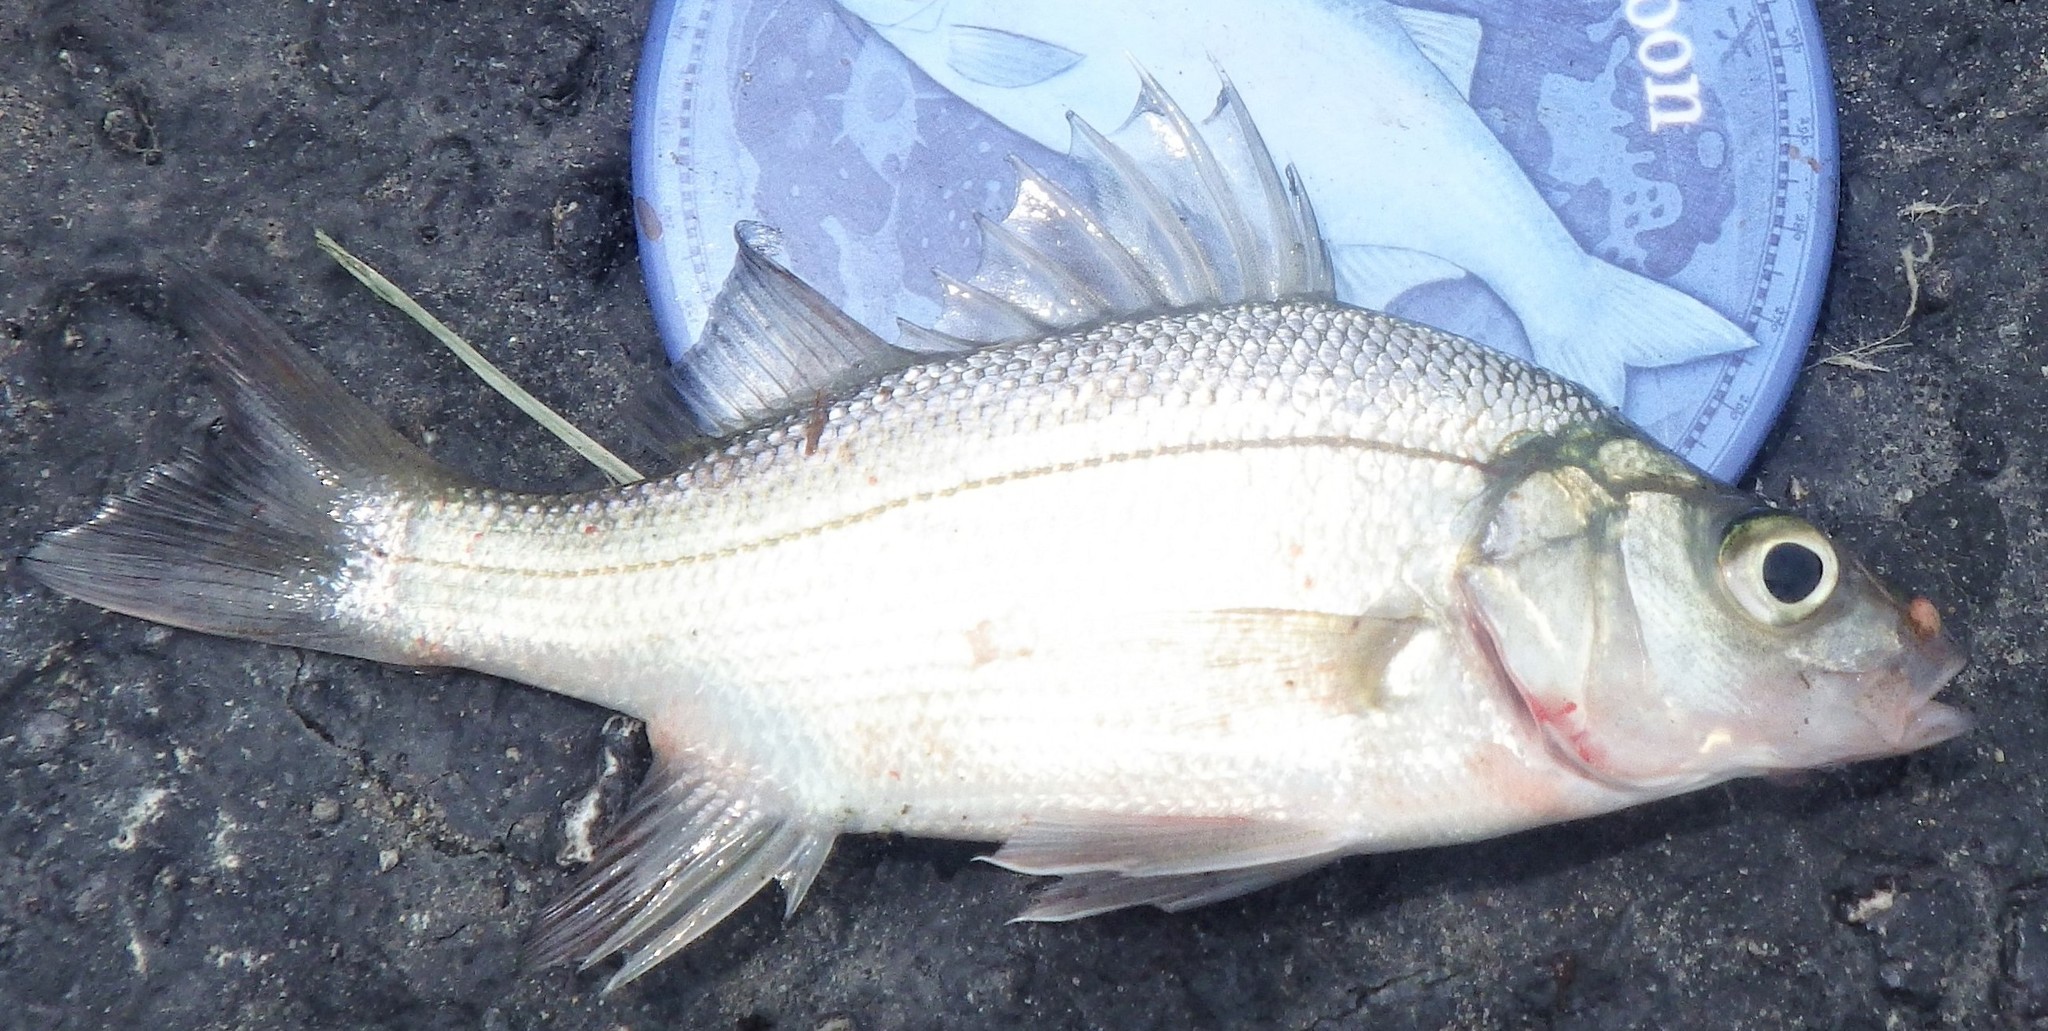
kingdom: Animalia
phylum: Chordata
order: Perciformes
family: Moronidae
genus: Morone
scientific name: Morone americana
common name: White perch
